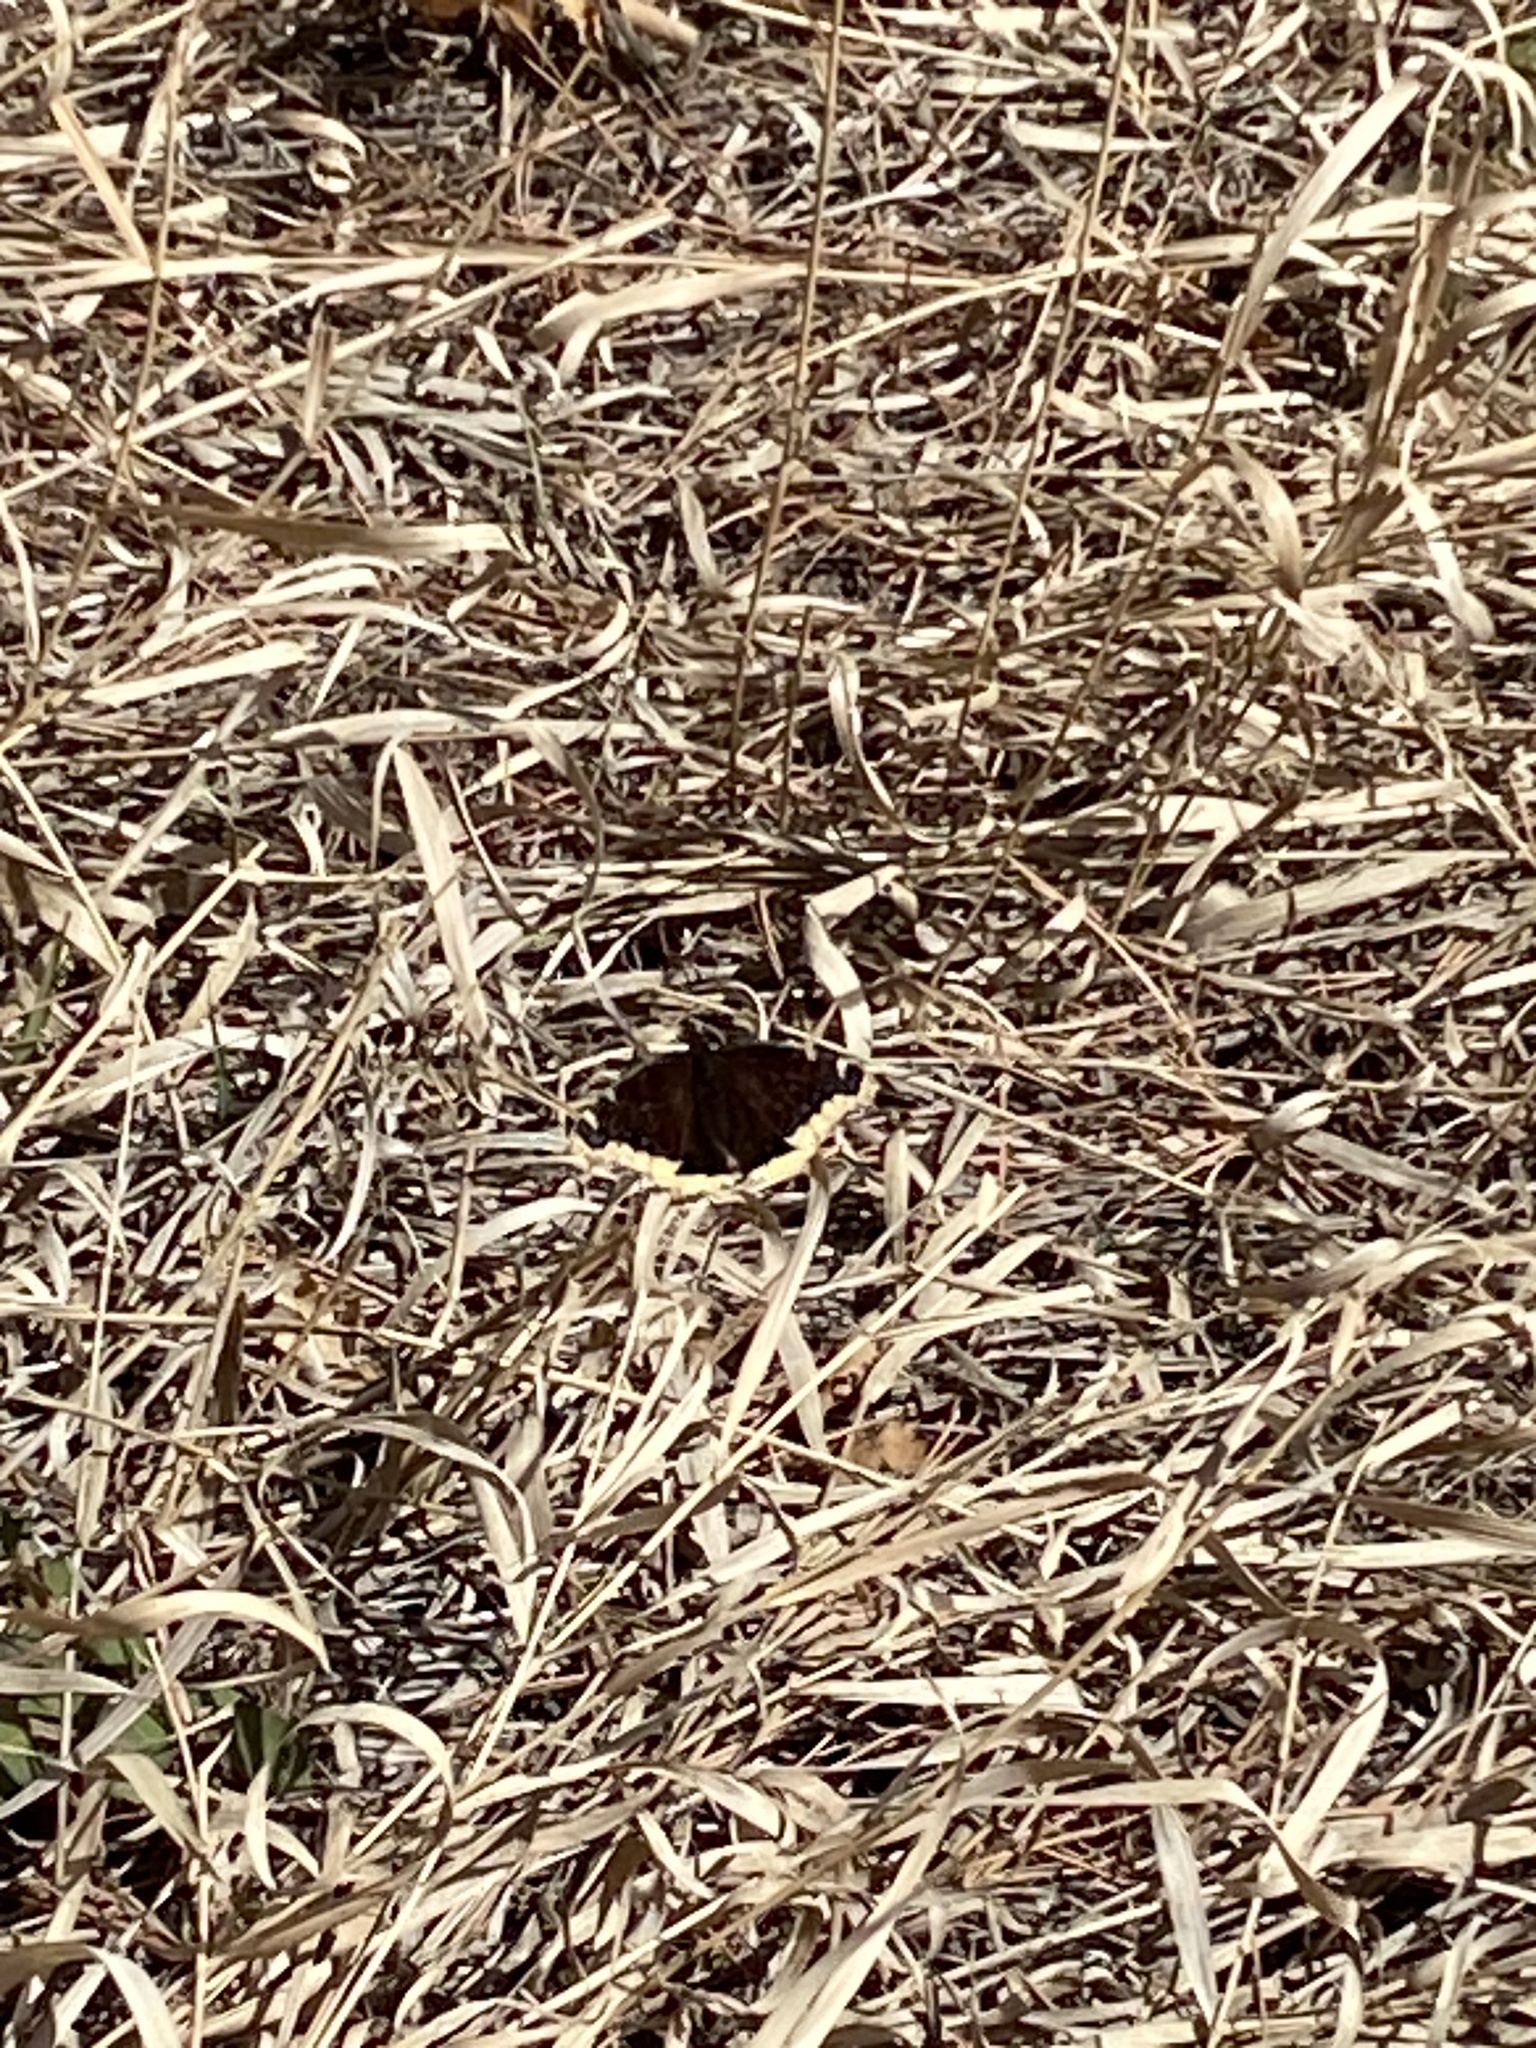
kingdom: Animalia
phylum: Arthropoda
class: Insecta
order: Lepidoptera
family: Nymphalidae
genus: Nymphalis
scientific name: Nymphalis antiopa
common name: Camberwell beauty
